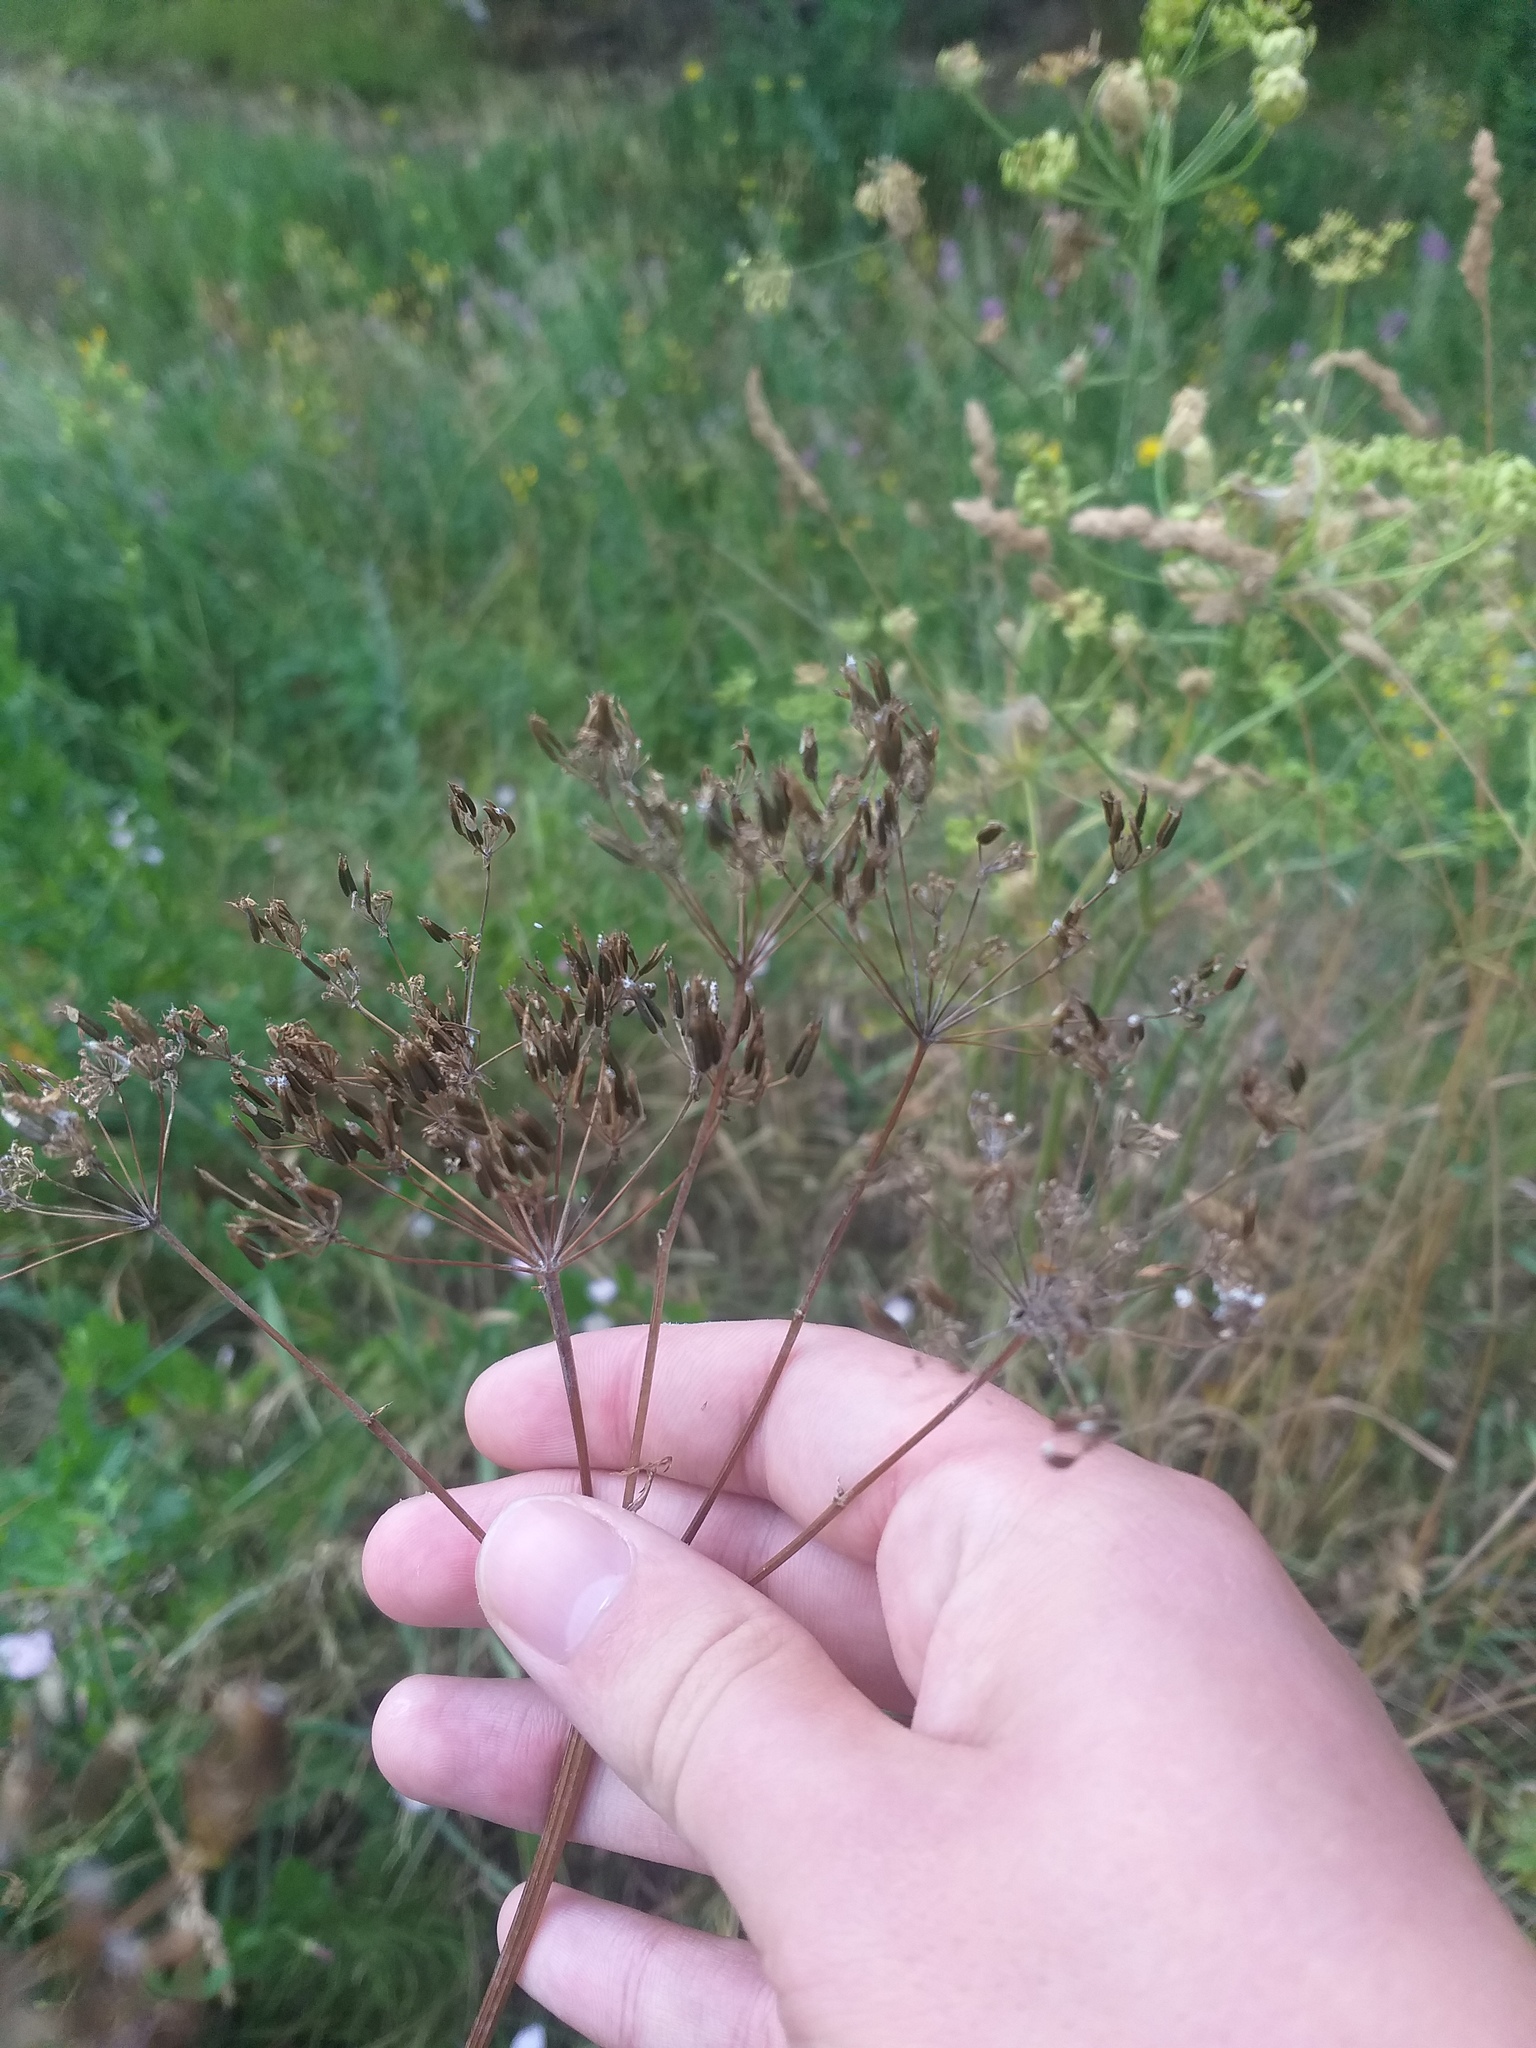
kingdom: Plantae
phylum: Tracheophyta
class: Magnoliopsida
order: Apiales
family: Apiaceae
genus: Anthriscus
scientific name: Anthriscus sylvestris
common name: Cow parsley
